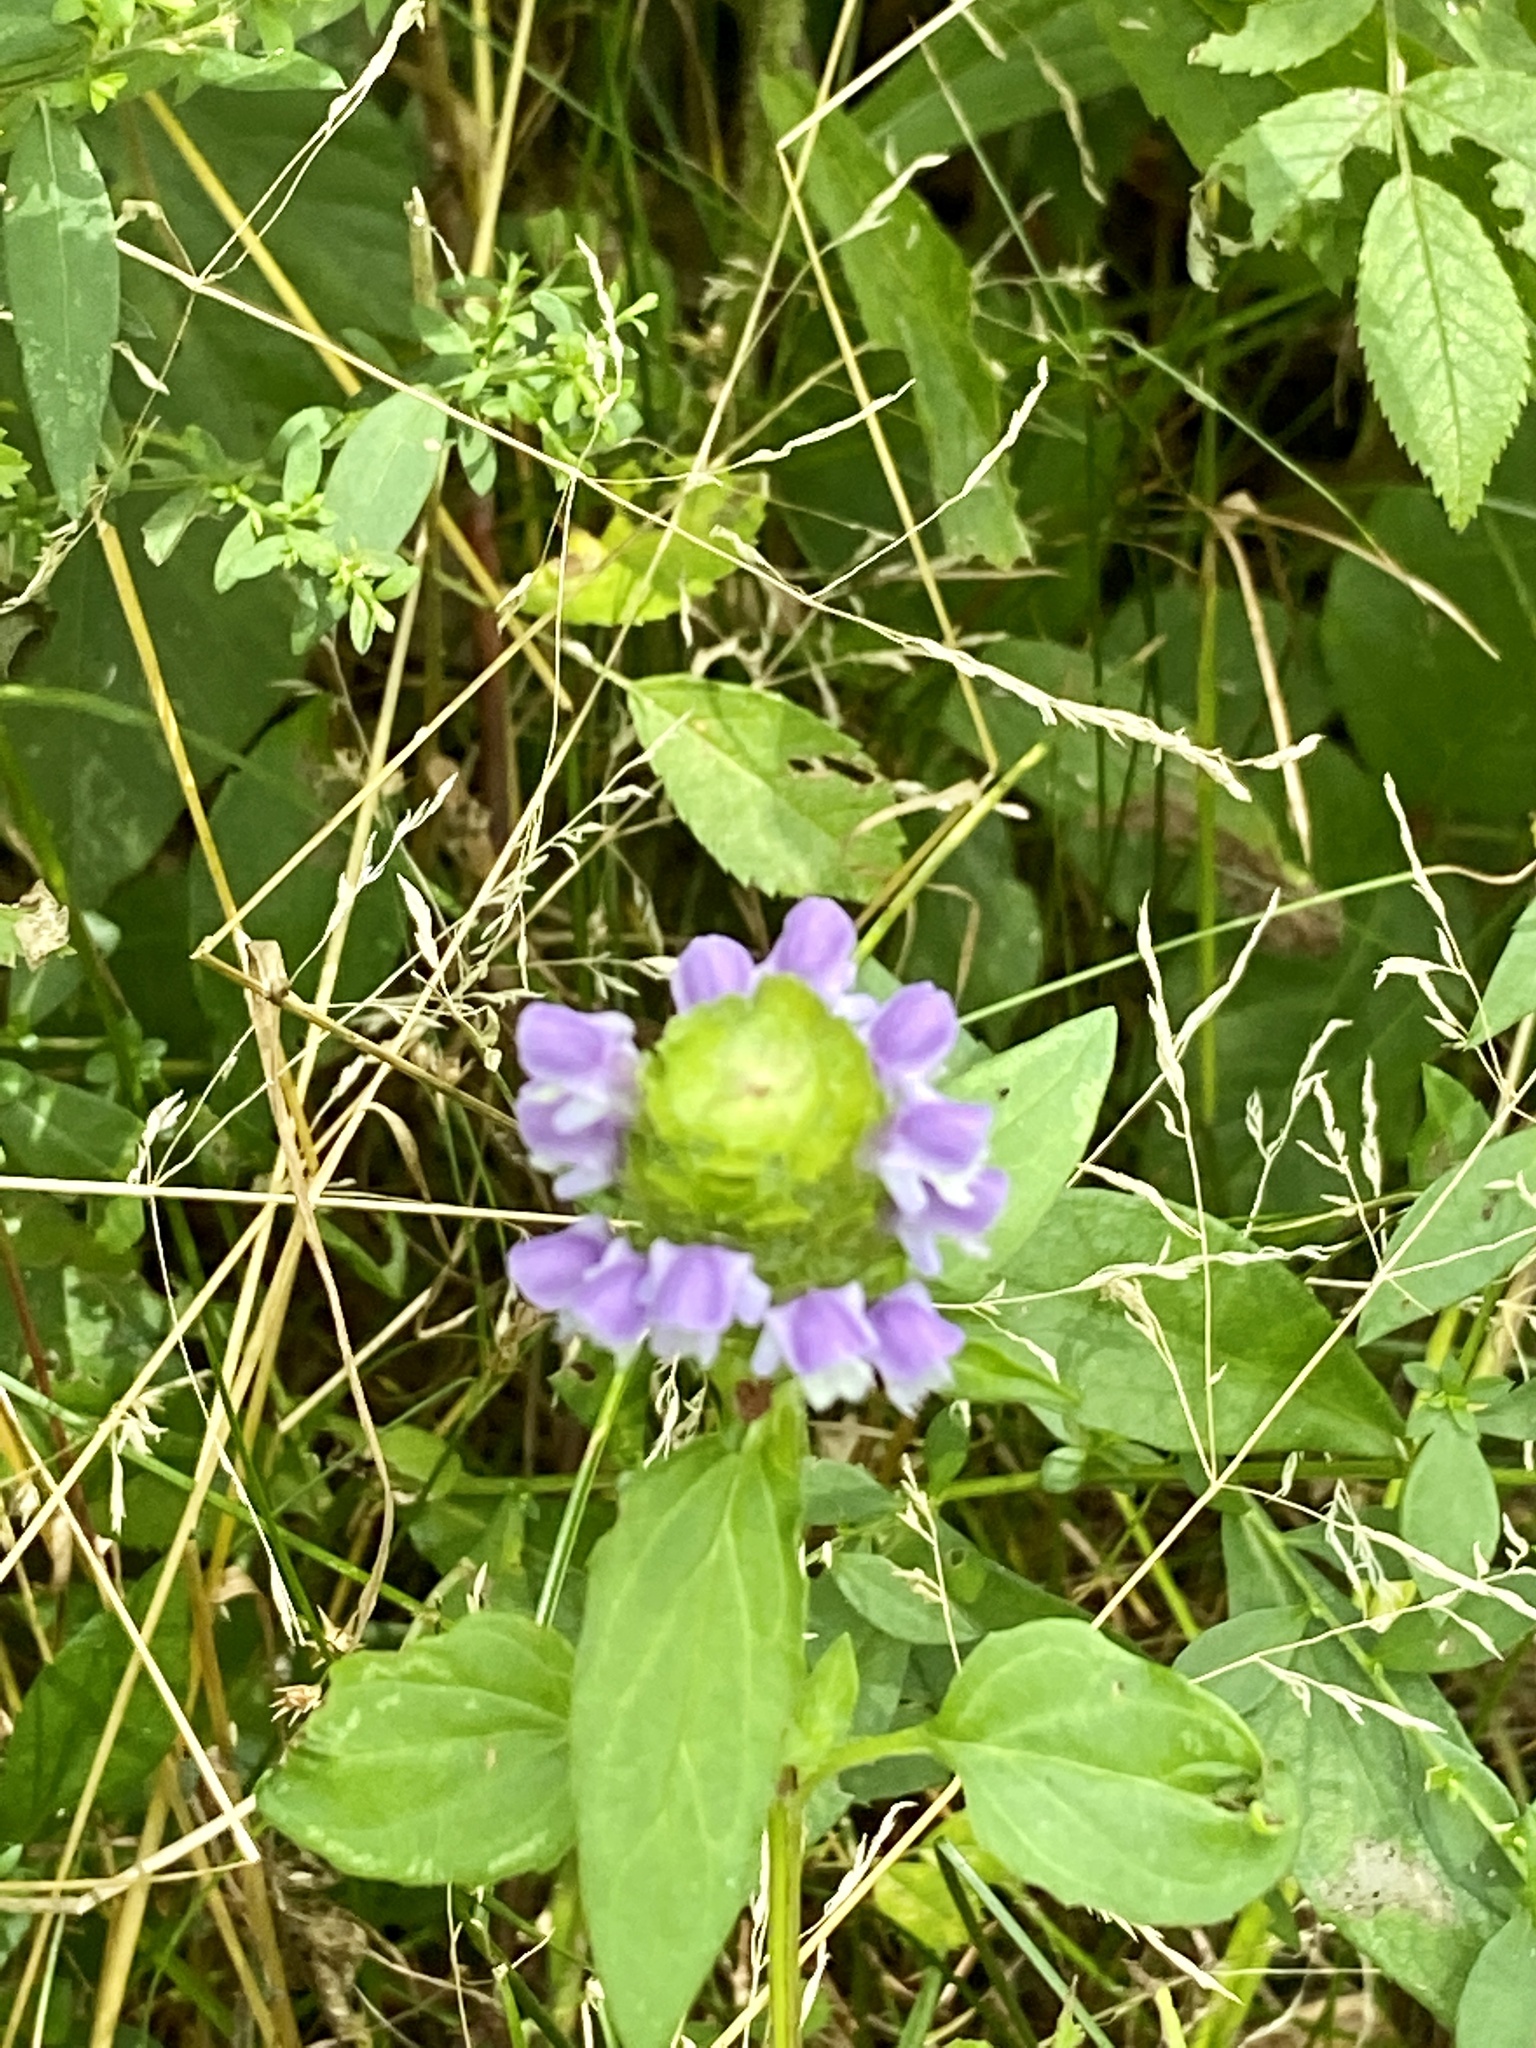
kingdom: Plantae
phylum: Tracheophyta
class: Magnoliopsida
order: Lamiales
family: Lamiaceae
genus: Prunella
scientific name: Prunella vulgaris
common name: Heal-all
